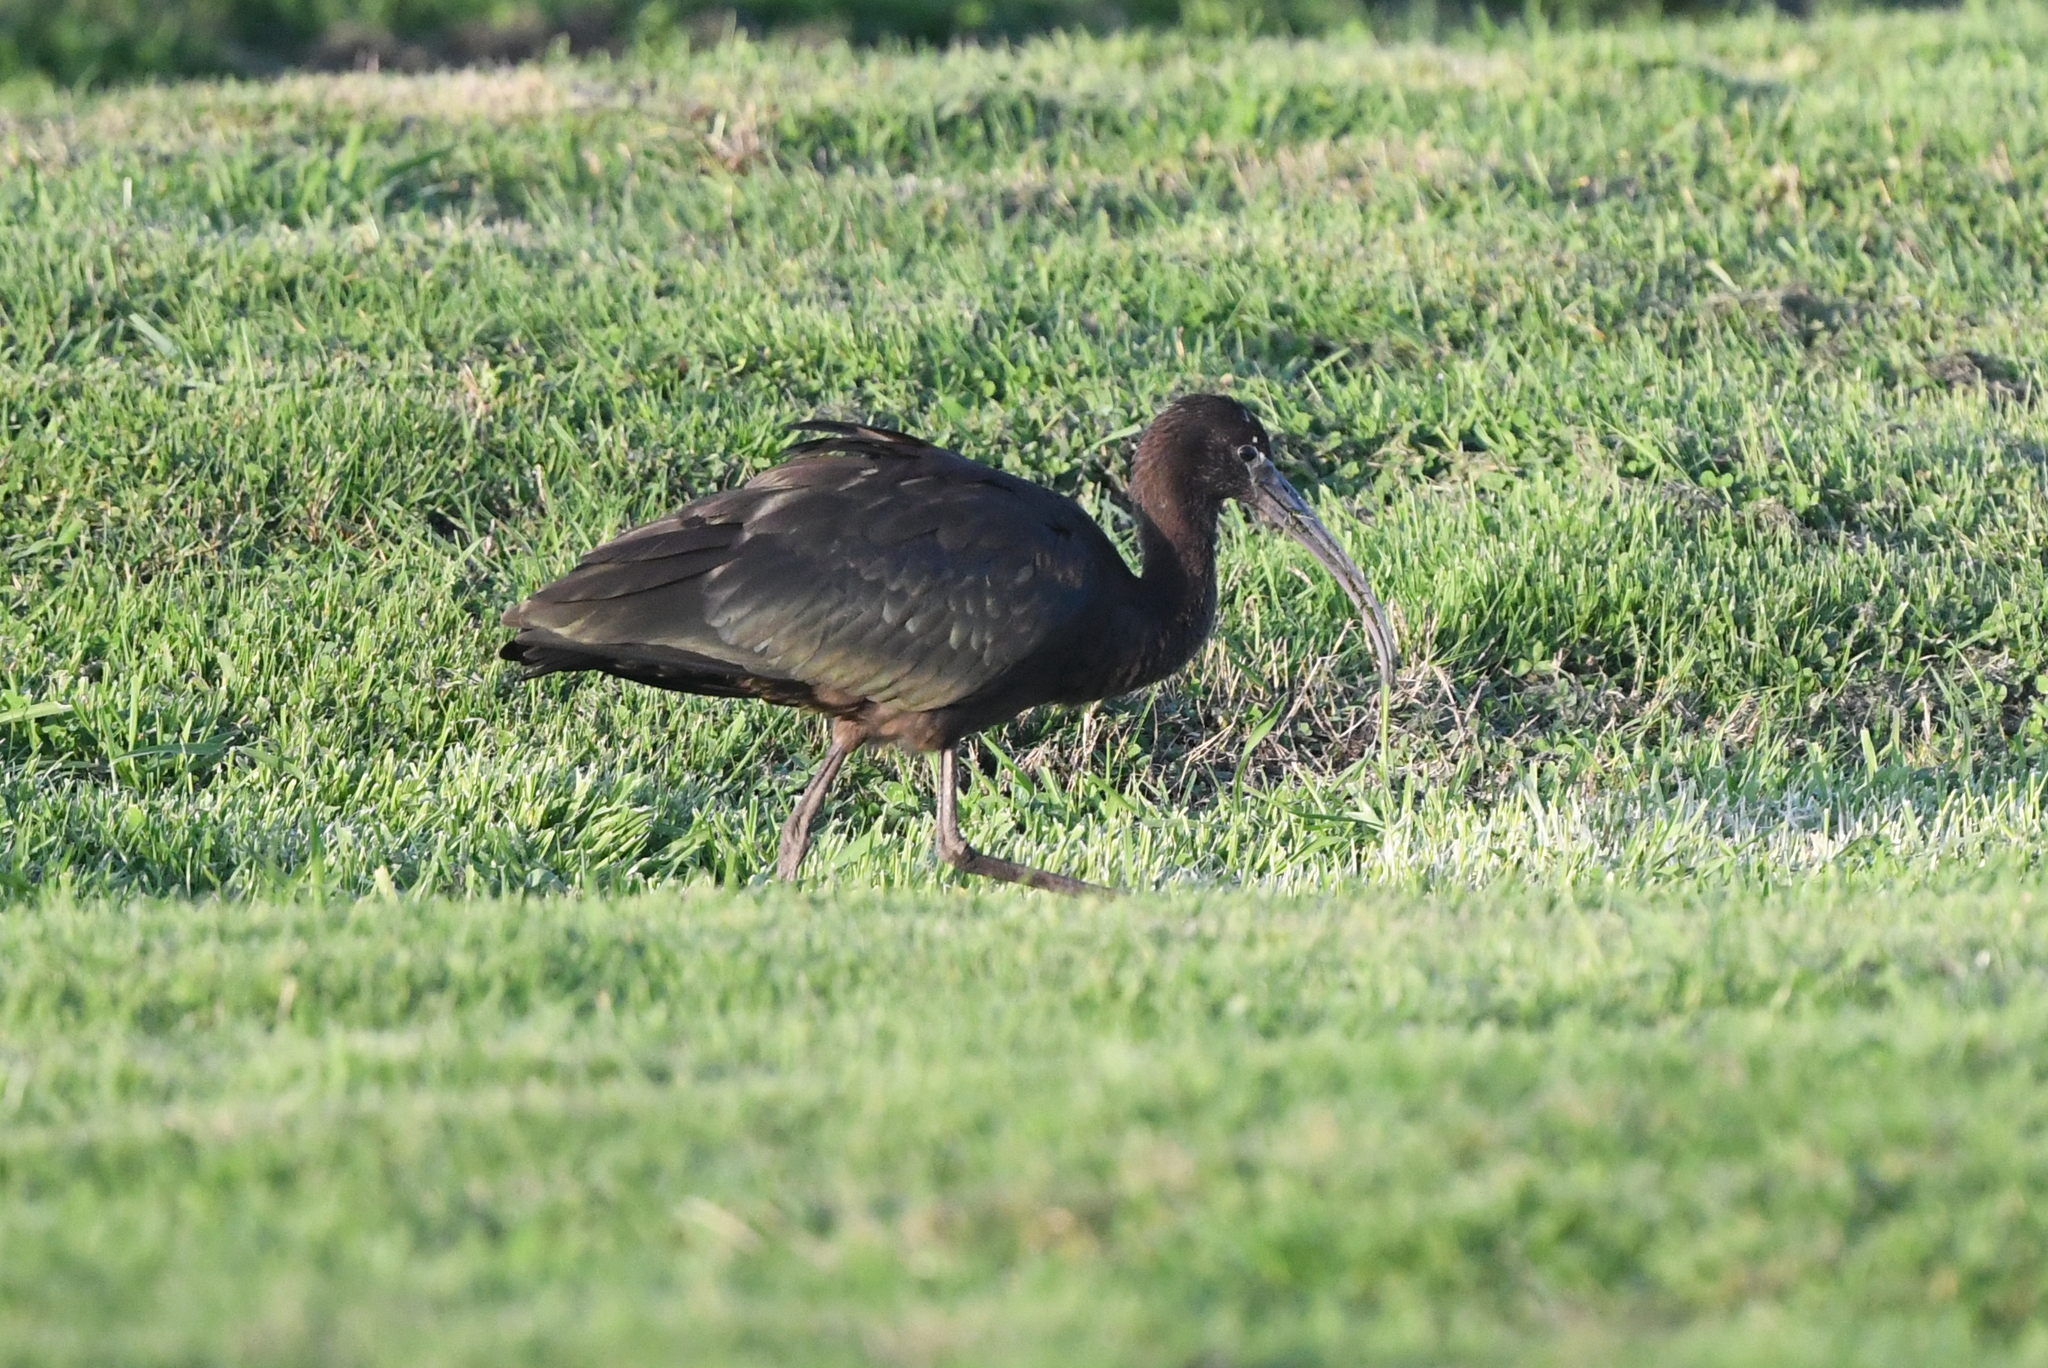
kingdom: Animalia
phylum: Chordata
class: Aves
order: Pelecaniformes
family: Threskiornithidae
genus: Plegadis
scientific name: Plegadis falcinellus
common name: Glossy ibis
